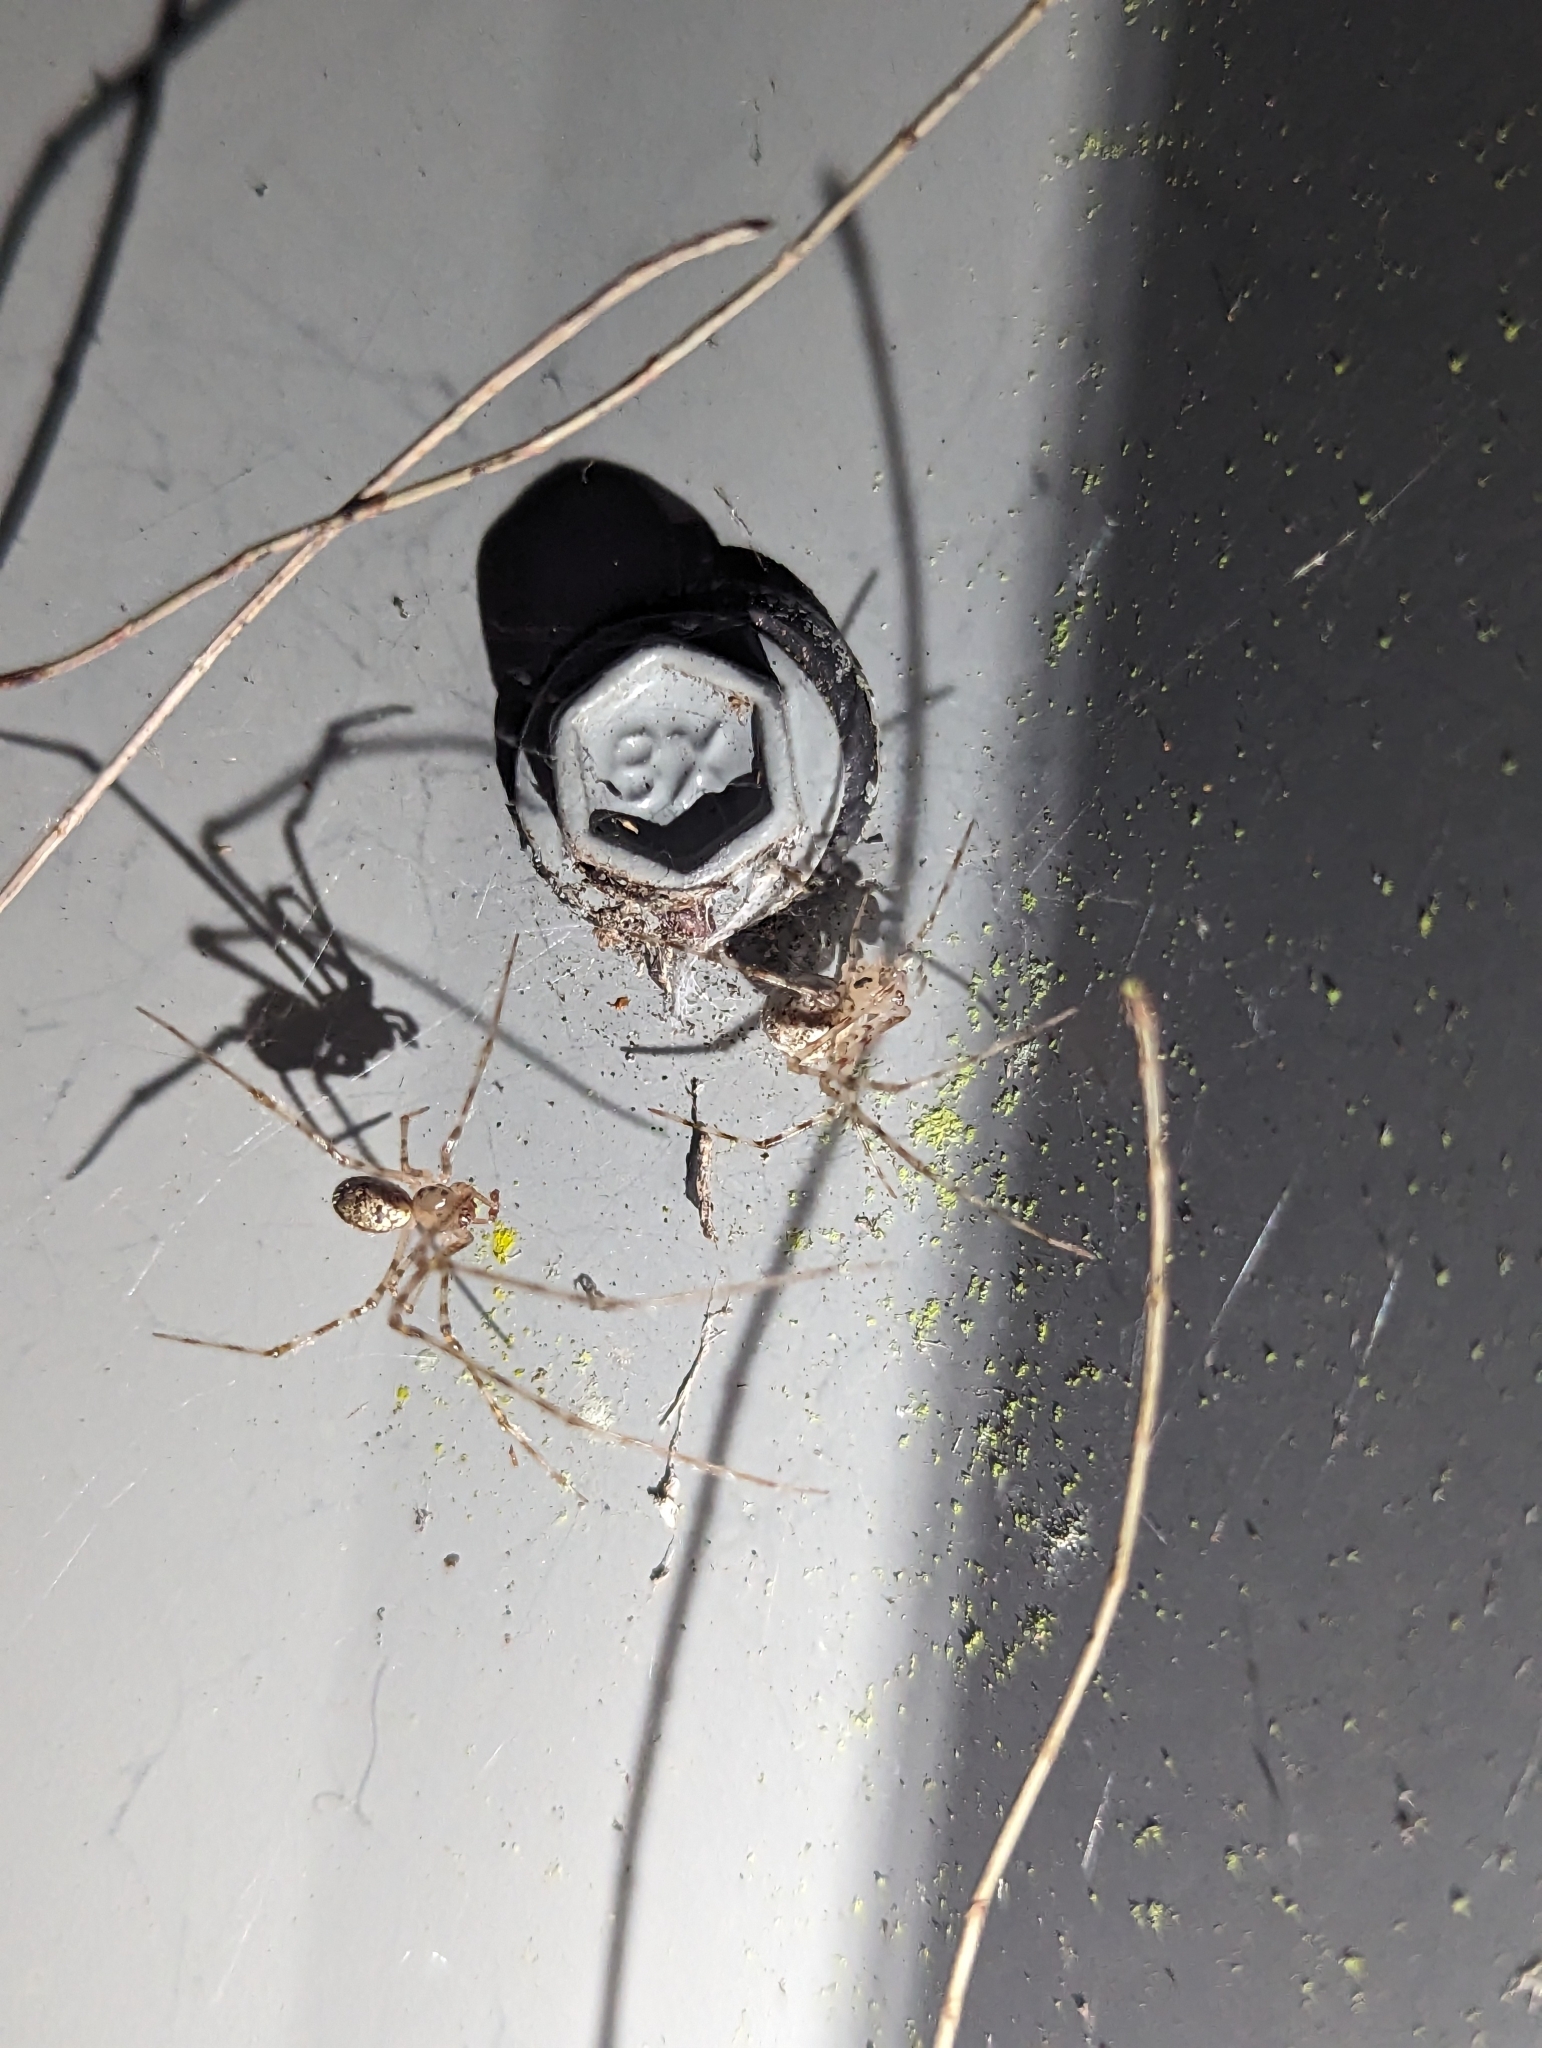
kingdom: Animalia
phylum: Arthropoda
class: Arachnida
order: Araneae
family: Theridiidae
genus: Cryptachaea
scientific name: Cryptachaea gigantipes
